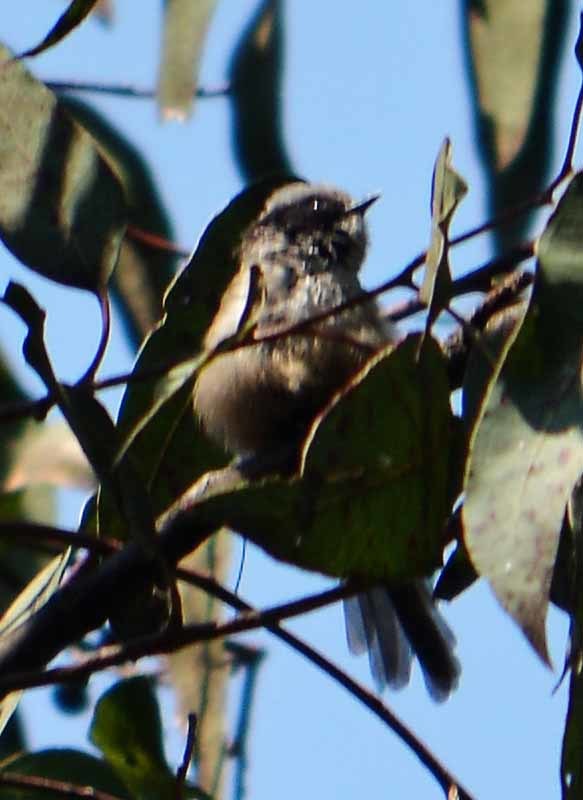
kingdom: Animalia
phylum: Chordata
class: Aves
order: Passeriformes
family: Aegithalidae
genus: Psaltriparus
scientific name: Psaltriparus minimus
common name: American bushtit
